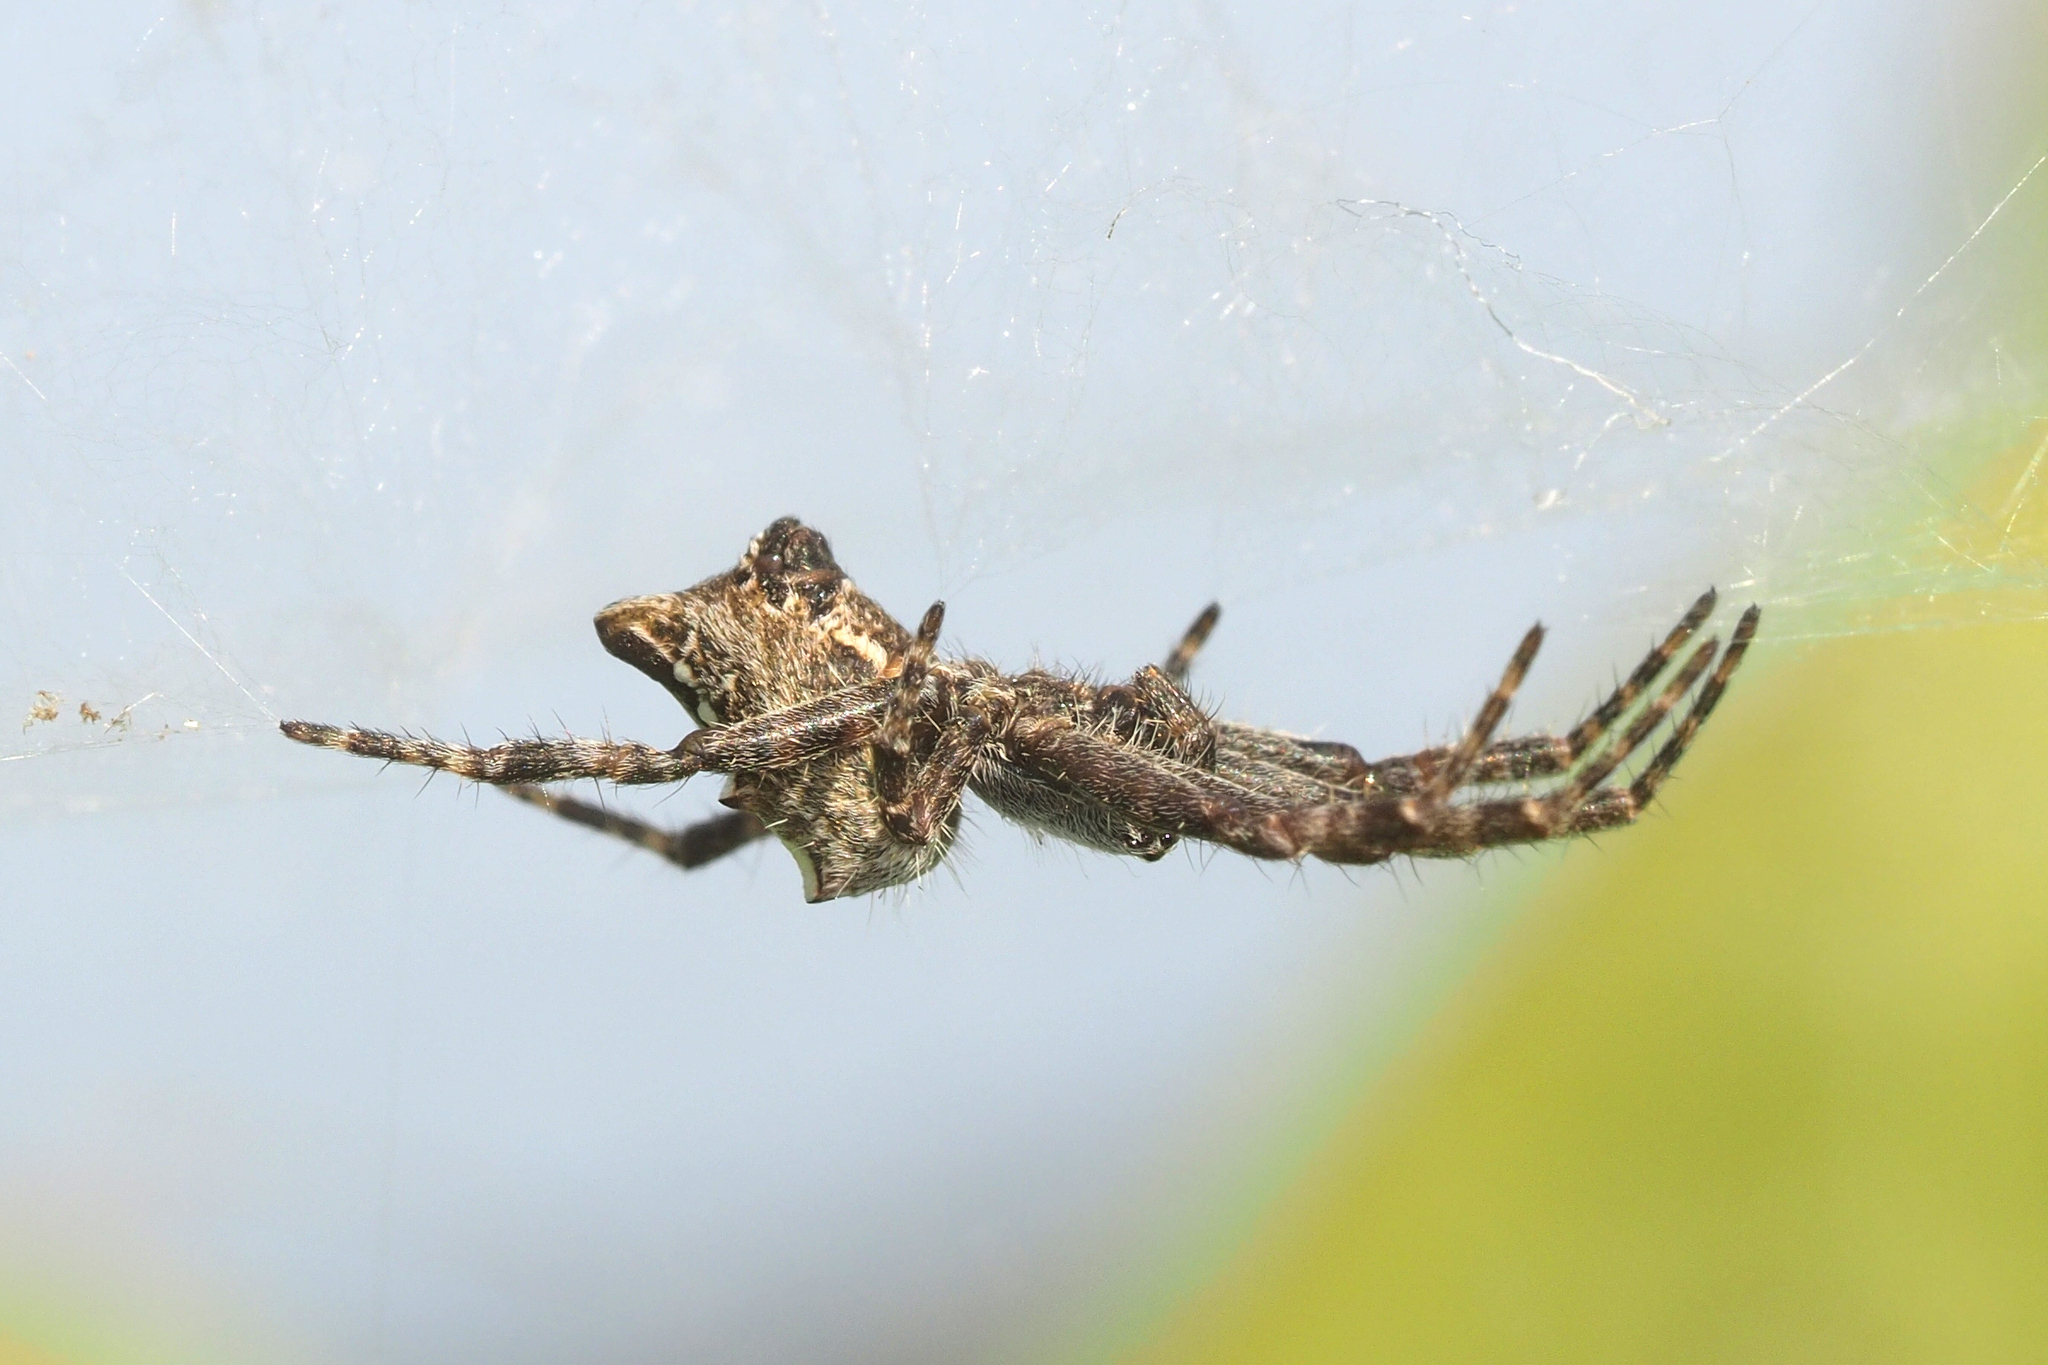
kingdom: Animalia
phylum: Arthropoda
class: Arachnida
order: Araneae
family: Araneidae
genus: Cyrtophora
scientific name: Cyrtophora citricola
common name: Orb weavers
